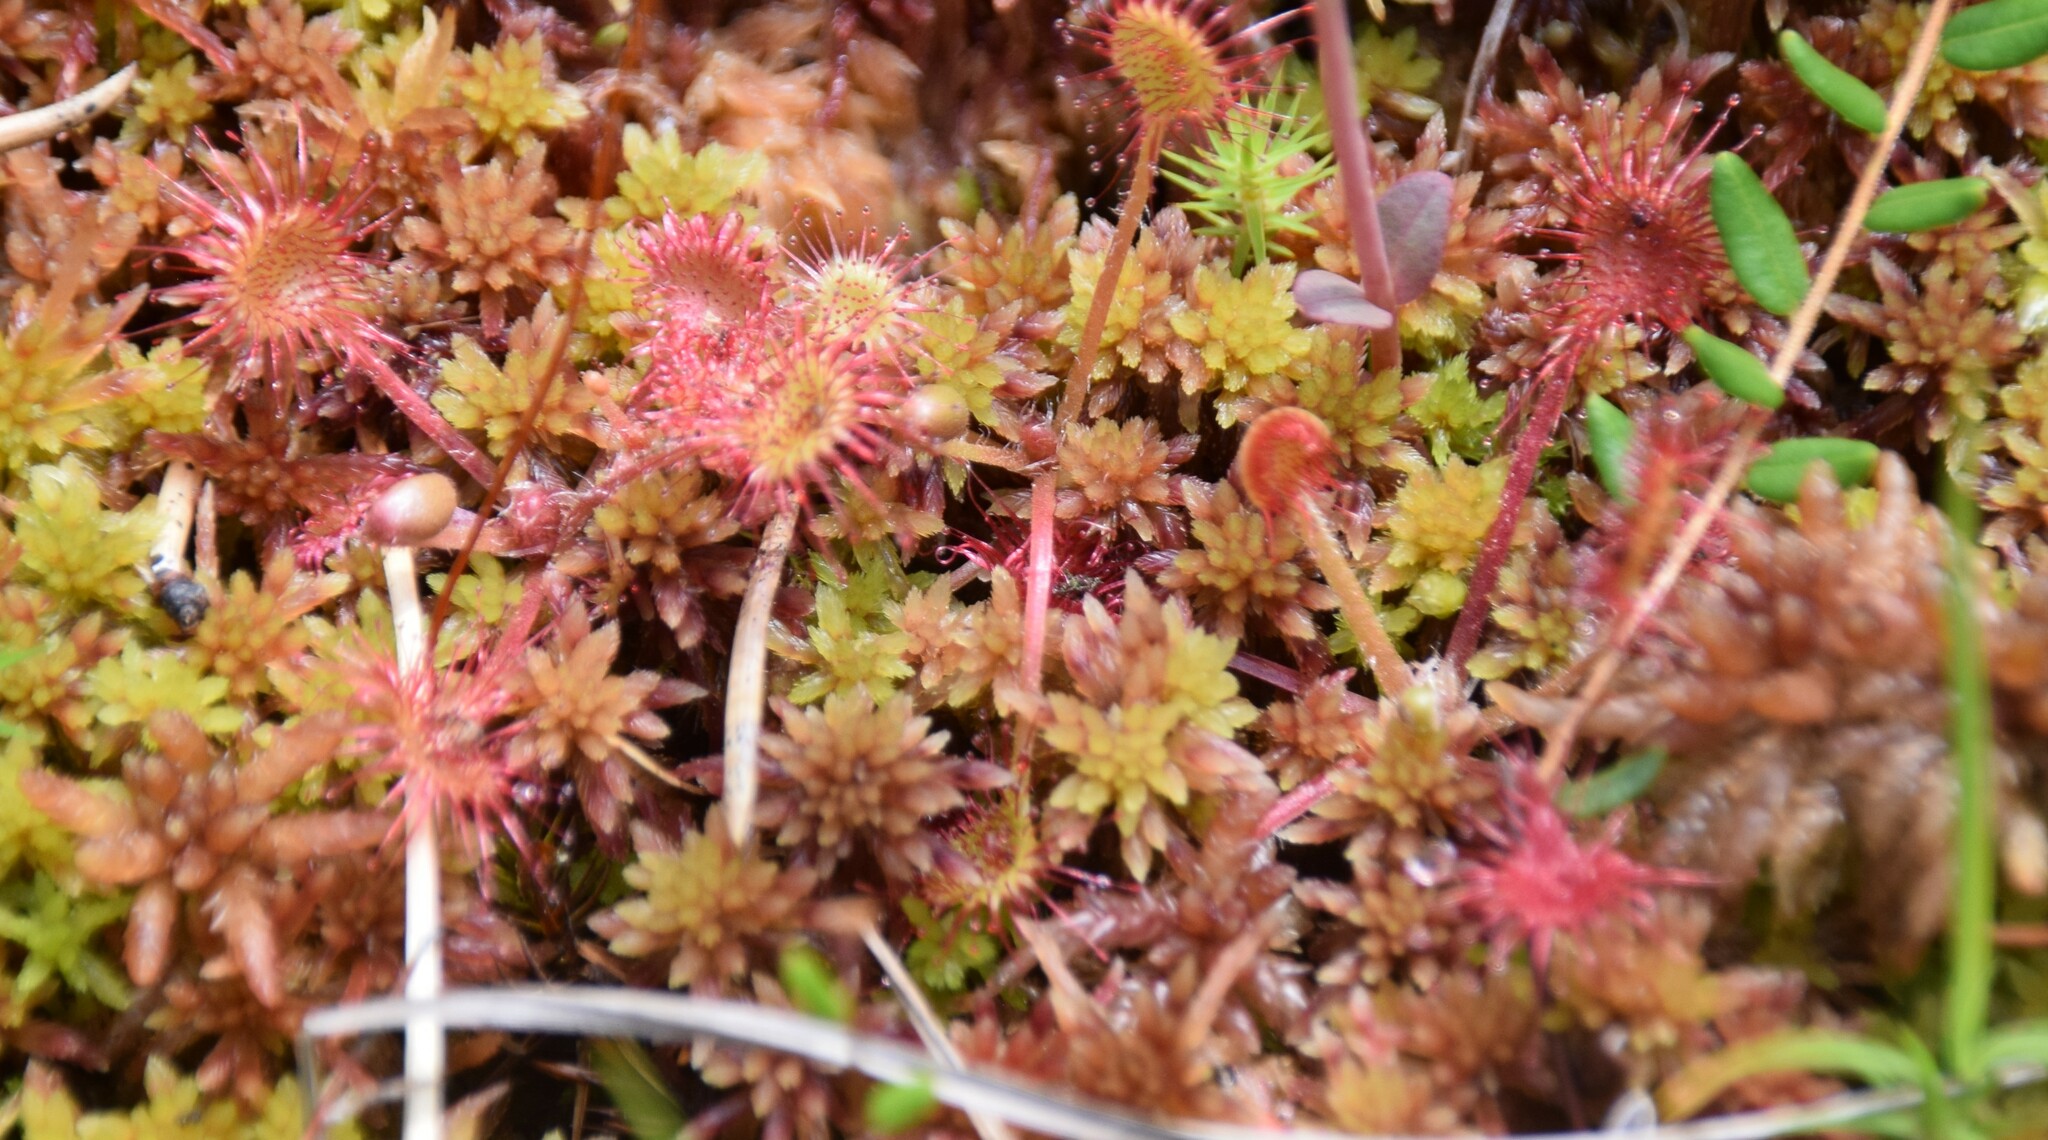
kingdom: Plantae
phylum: Tracheophyta
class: Magnoliopsida
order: Caryophyllales
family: Droseraceae
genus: Drosera
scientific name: Drosera rotundifolia
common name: Round-leaved sundew
